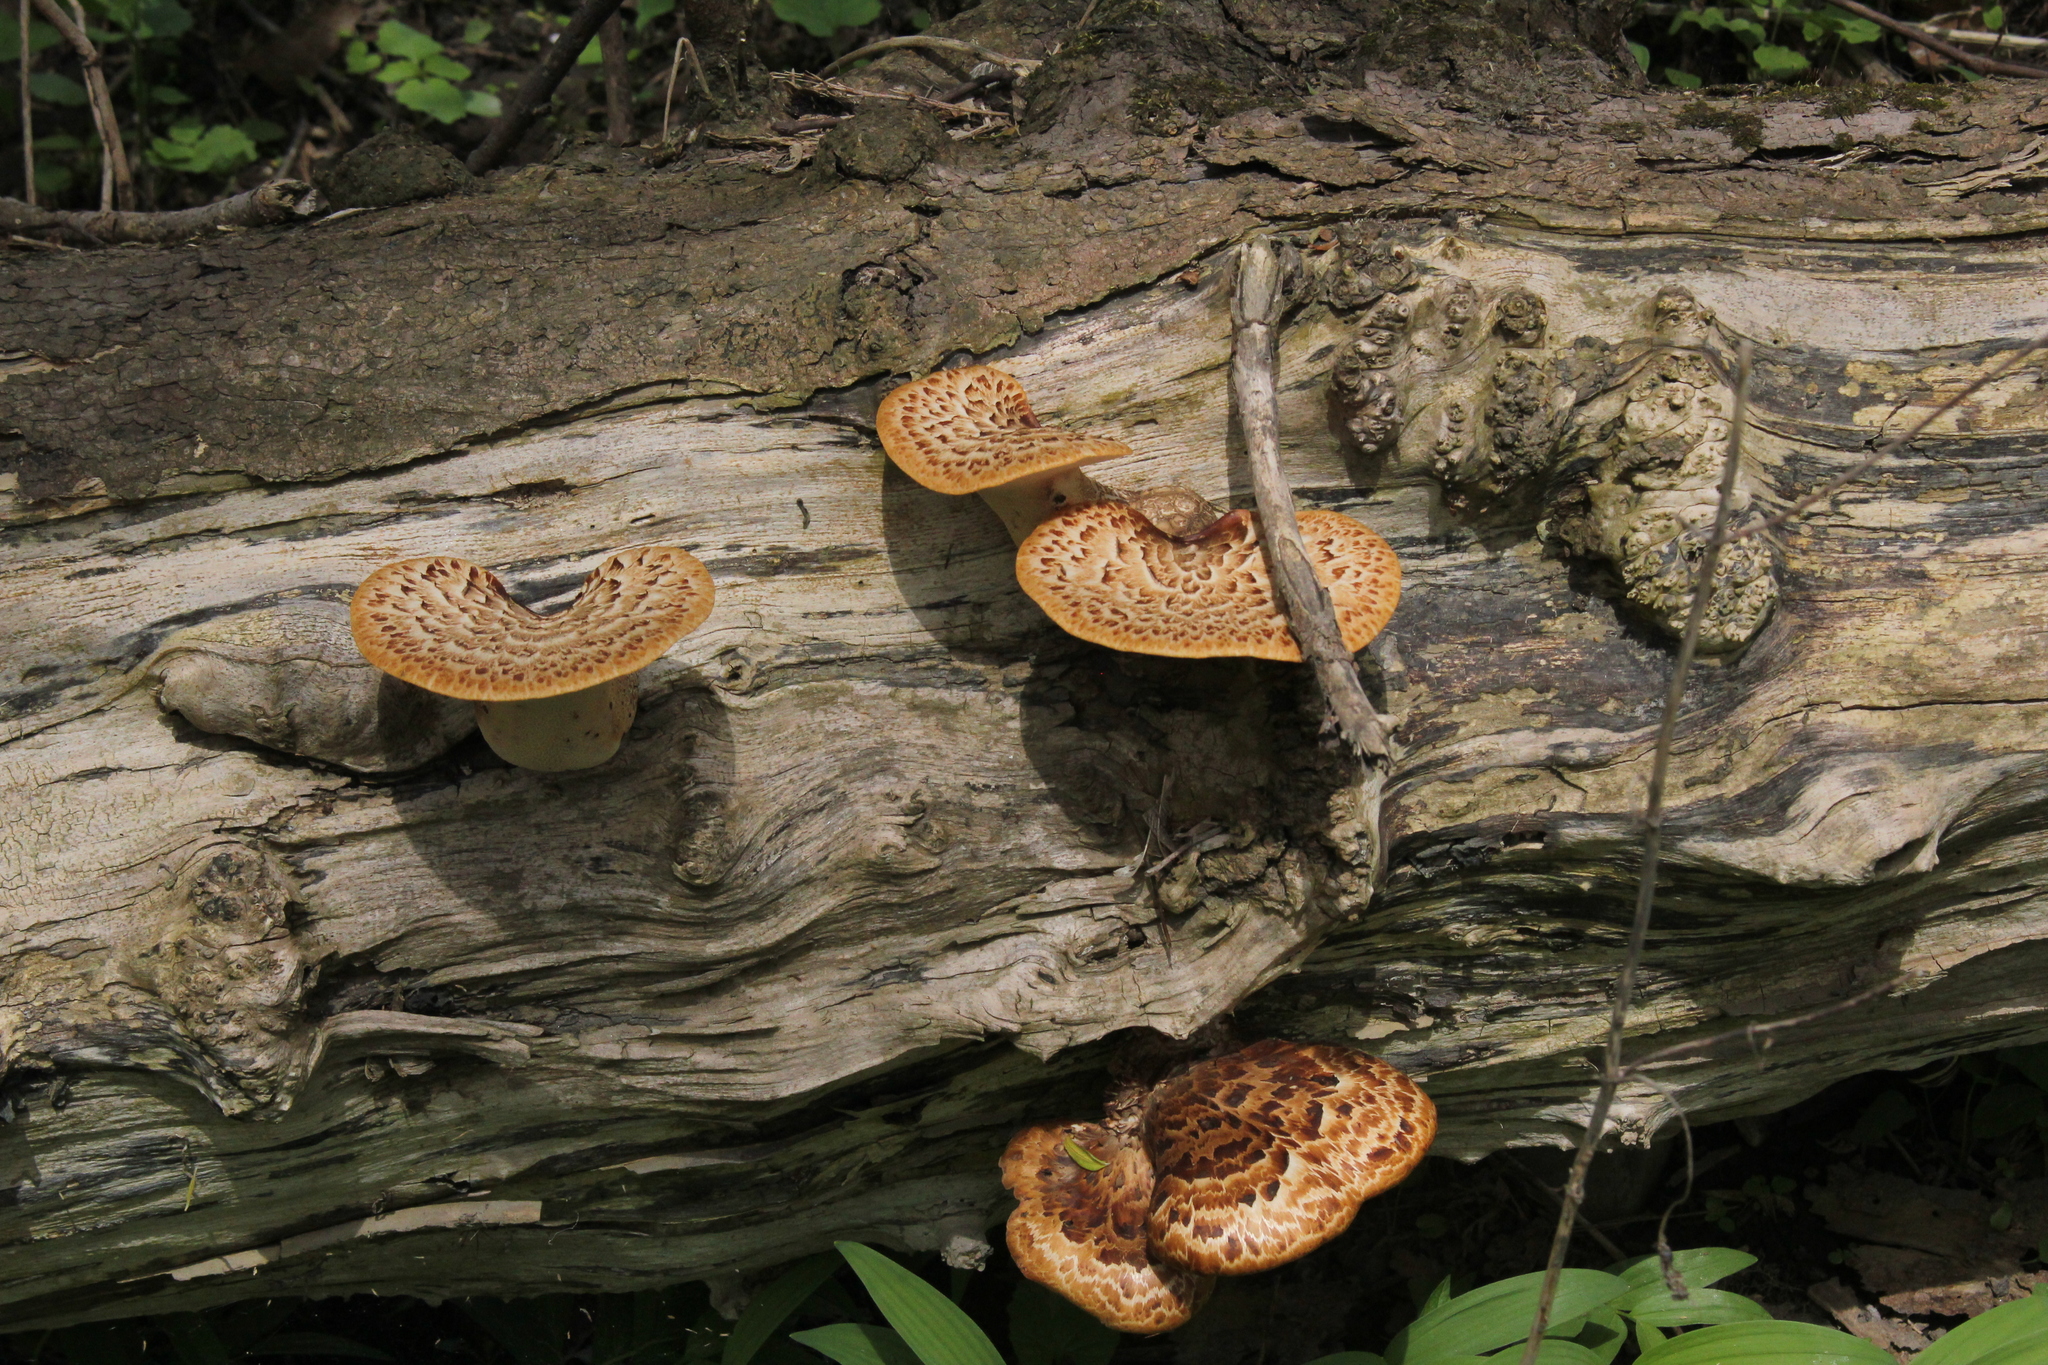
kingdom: Fungi
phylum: Basidiomycota
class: Agaricomycetes
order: Polyporales
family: Polyporaceae
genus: Cerioporus
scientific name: Cerioporus squamosus
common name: Dryad's saddle
